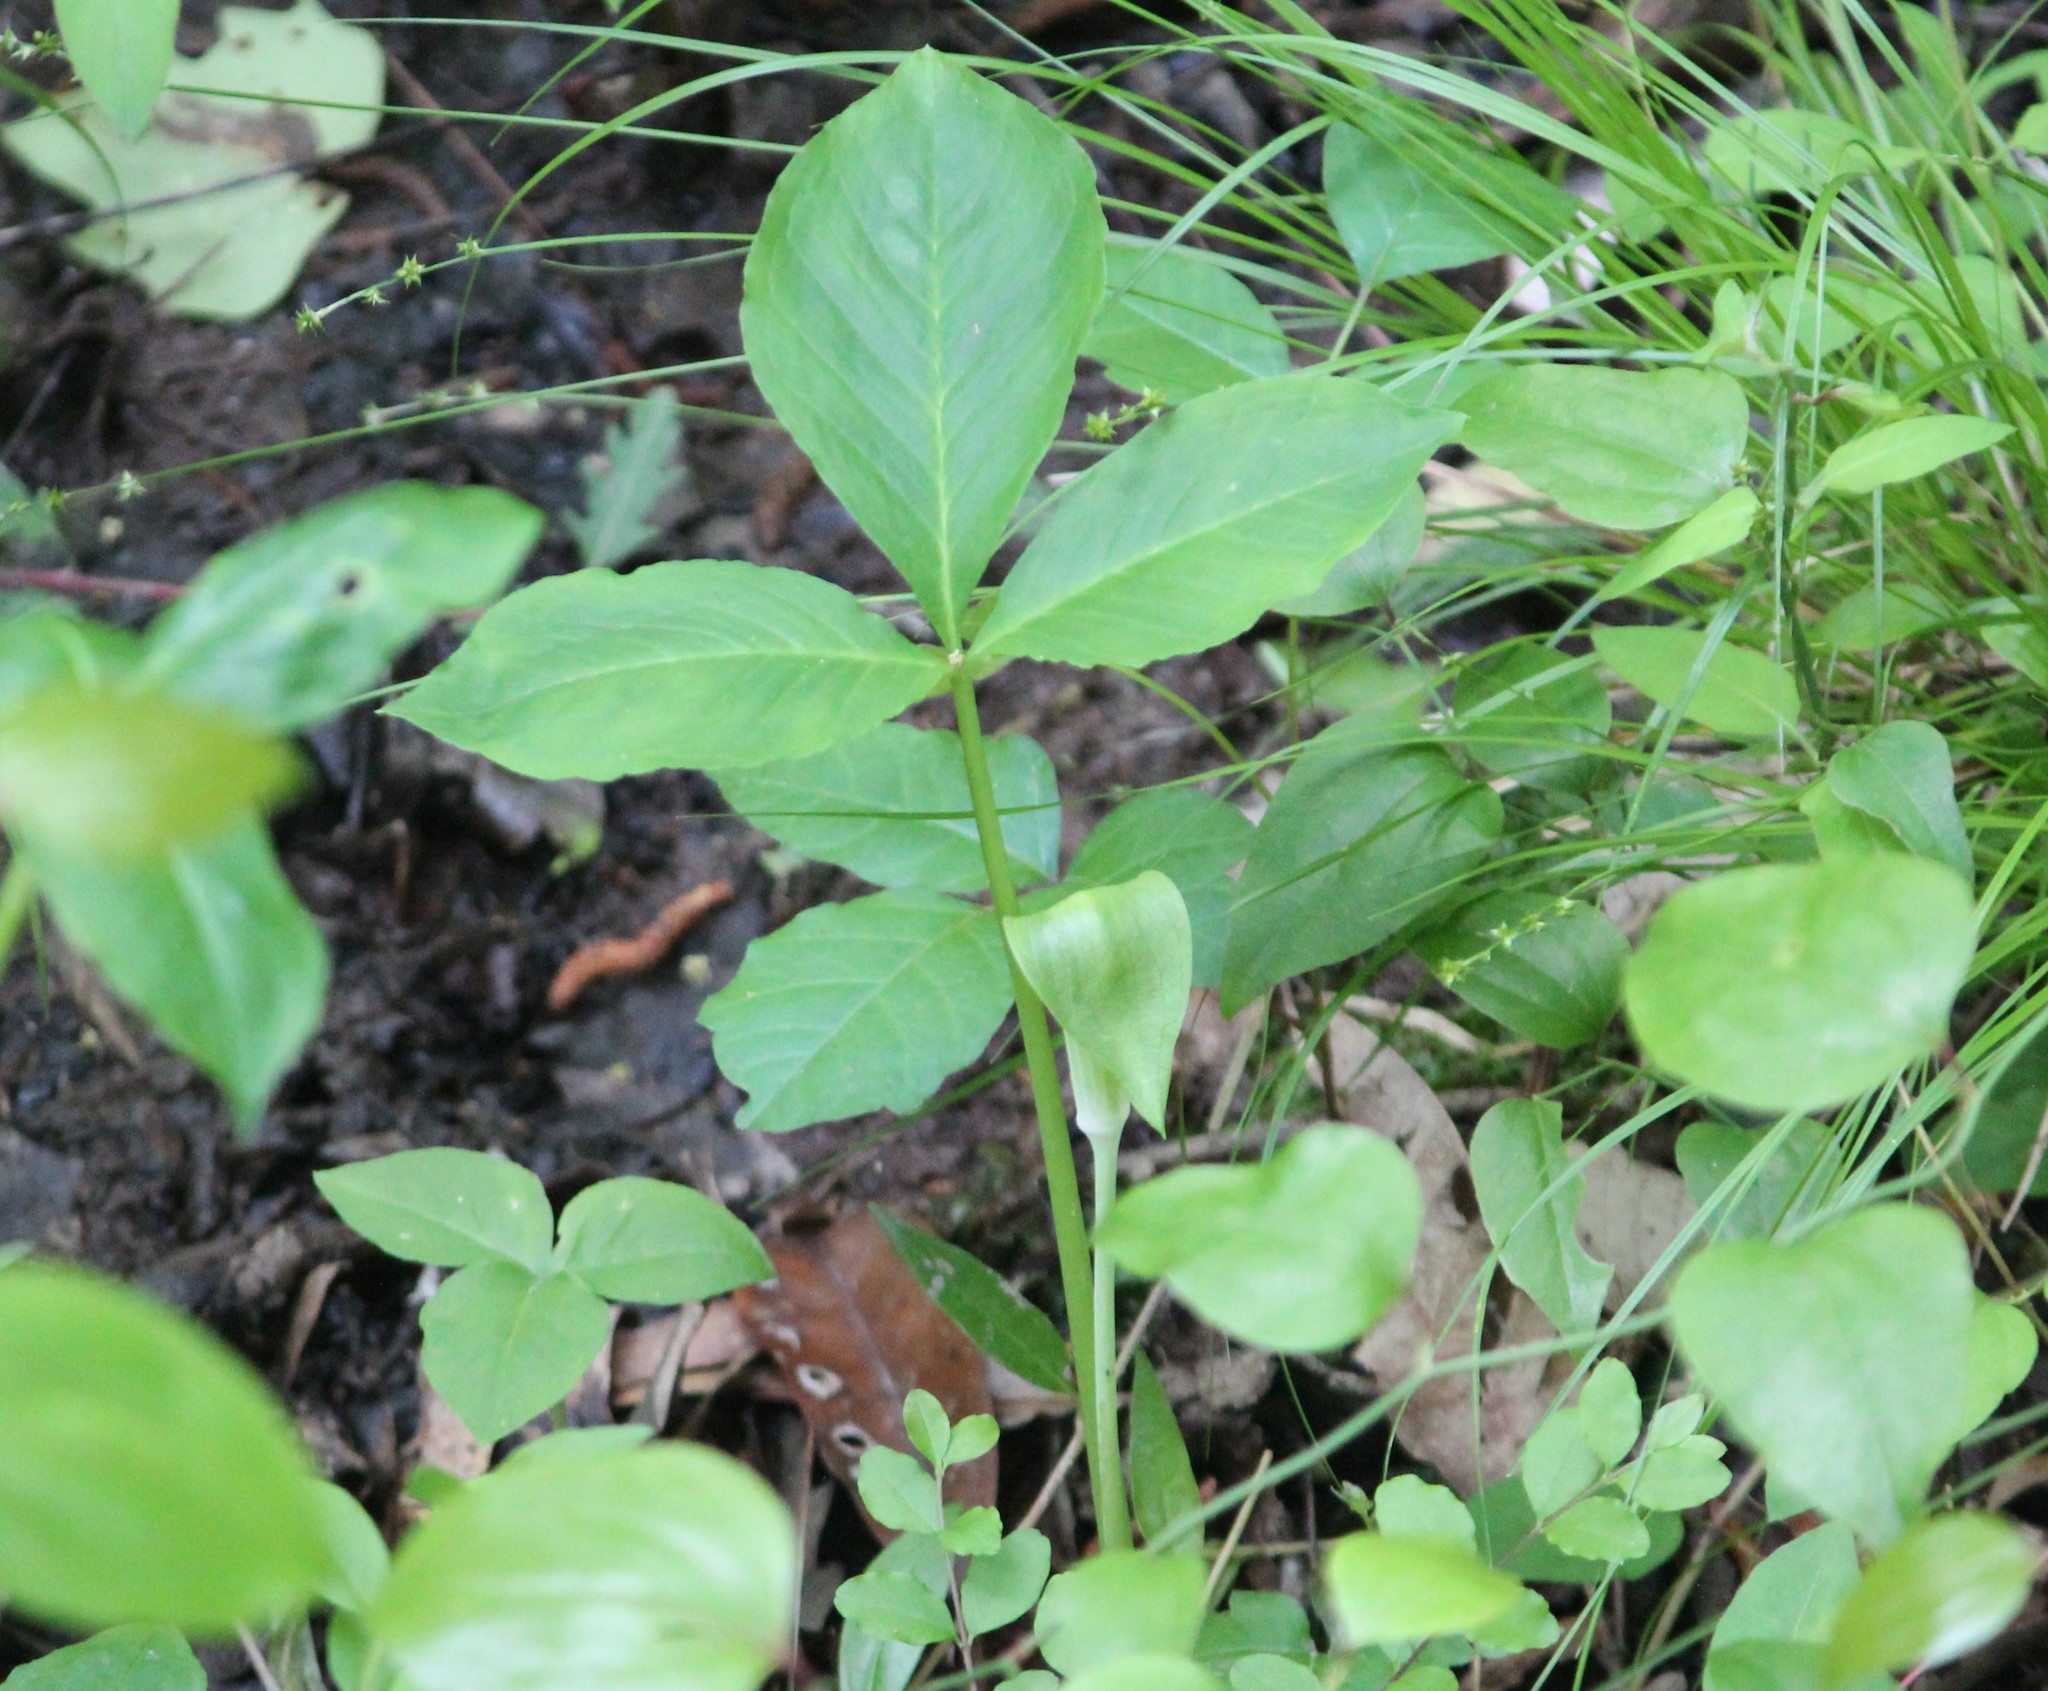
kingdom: Plantae
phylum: Tracheophyta
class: Liliopsida
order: Alismatales
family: Araceae
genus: Arisaema
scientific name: Arisaema triphyllum
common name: Jack-in-the-pulpit
